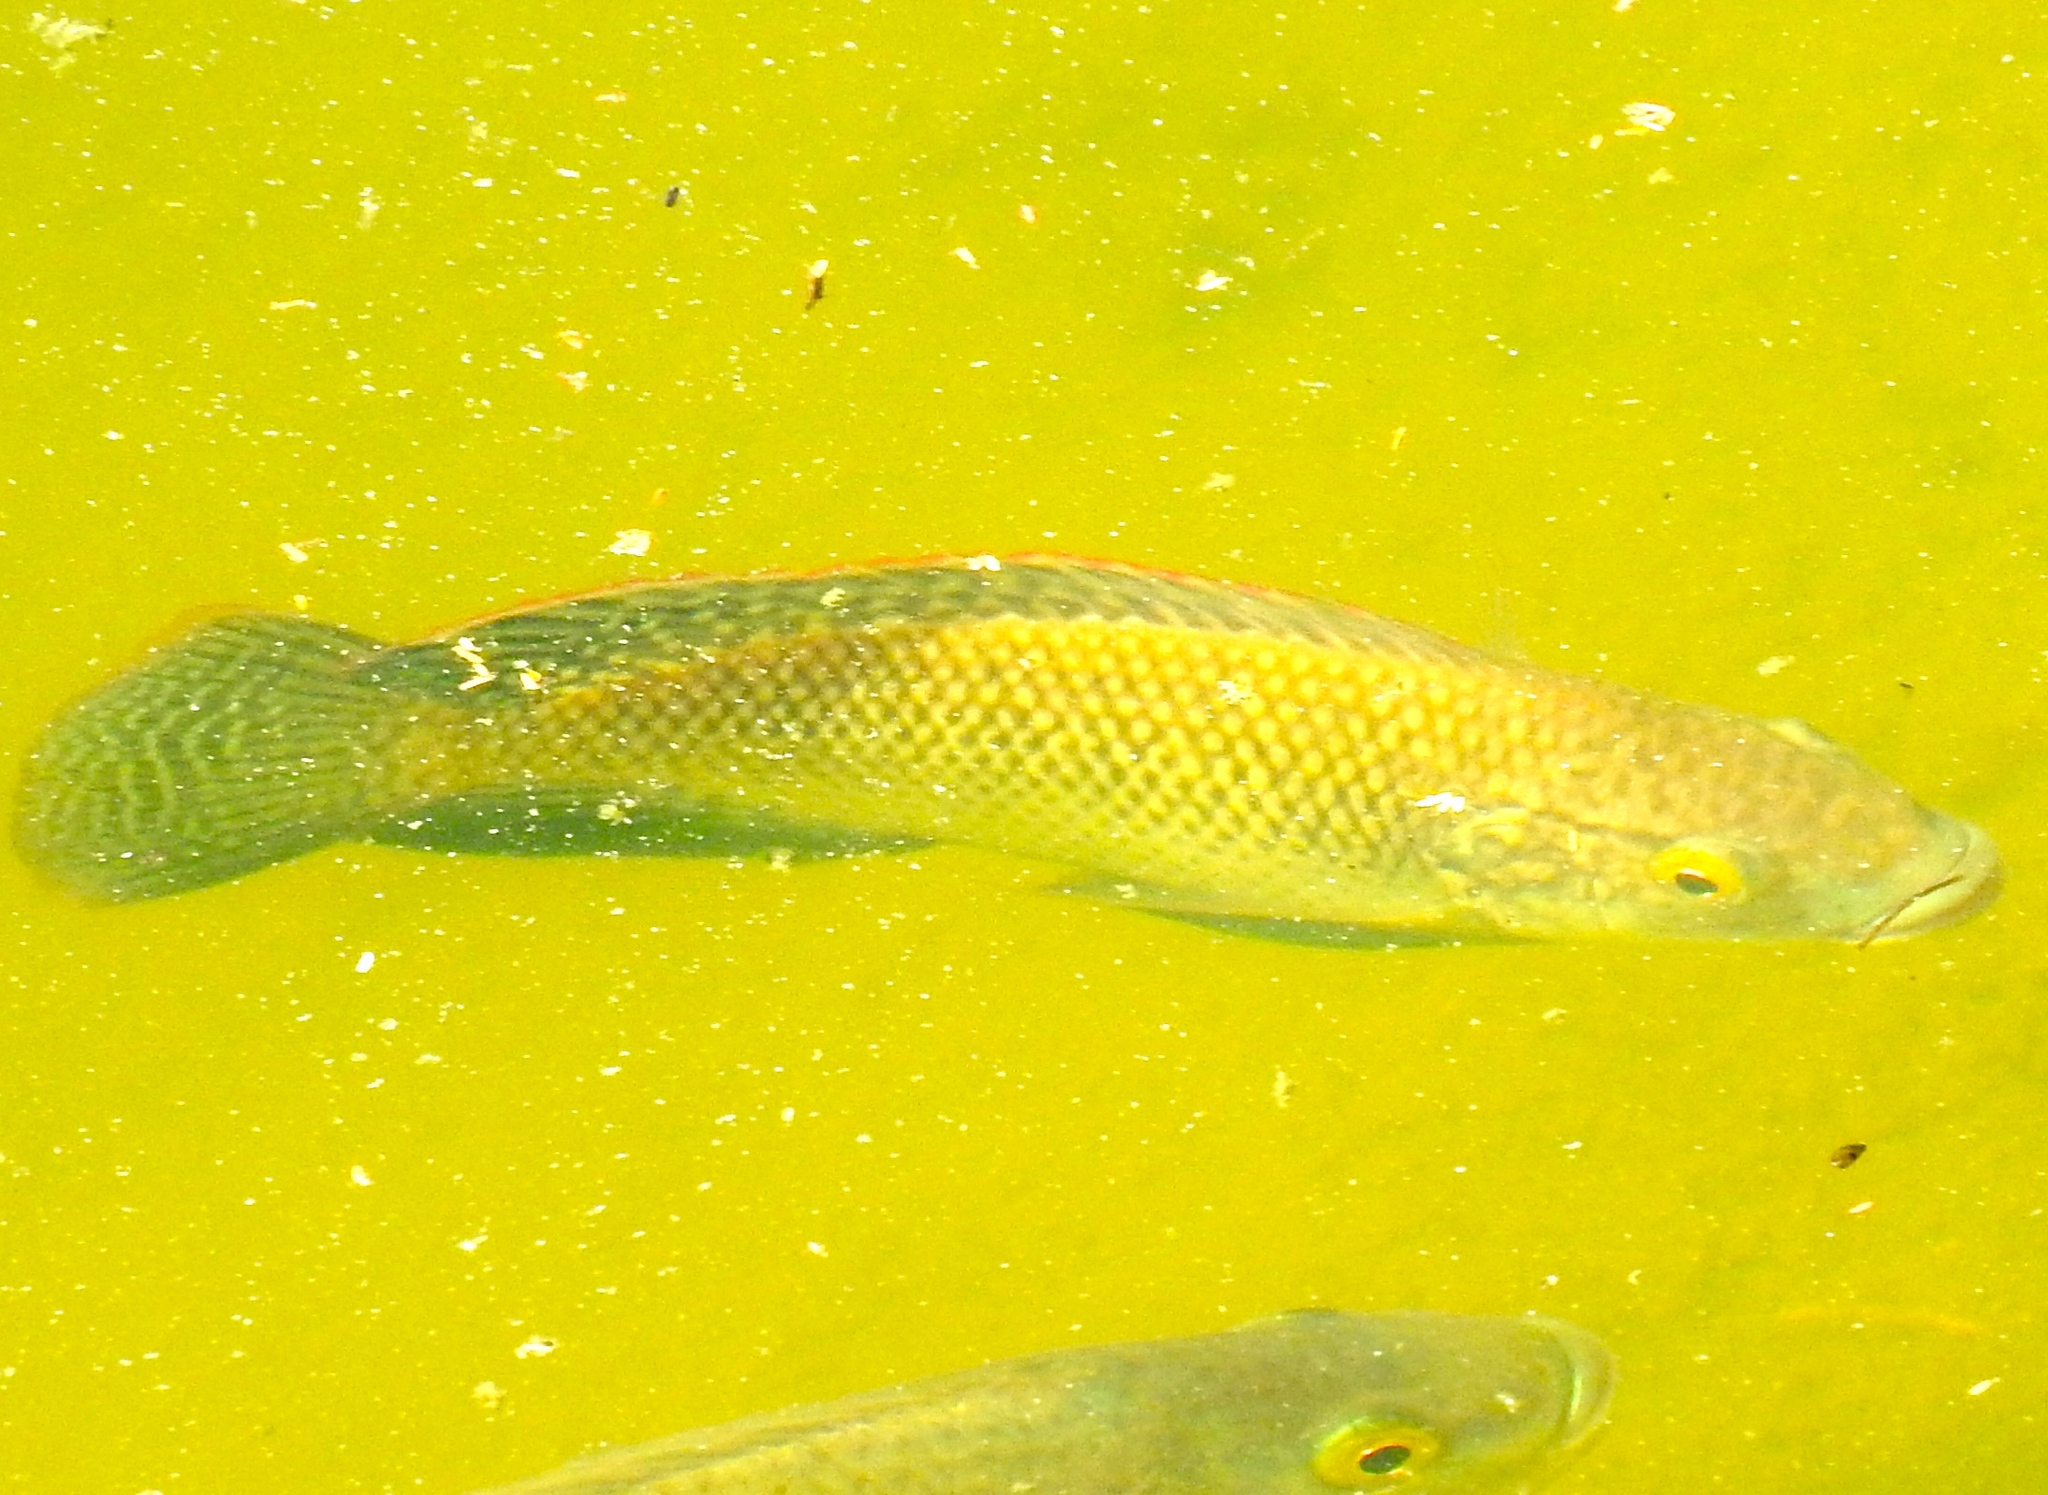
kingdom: Animalia
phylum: Chordata
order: Perciformes
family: Cichlidae
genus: Oreochromis
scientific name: Oreochromis
